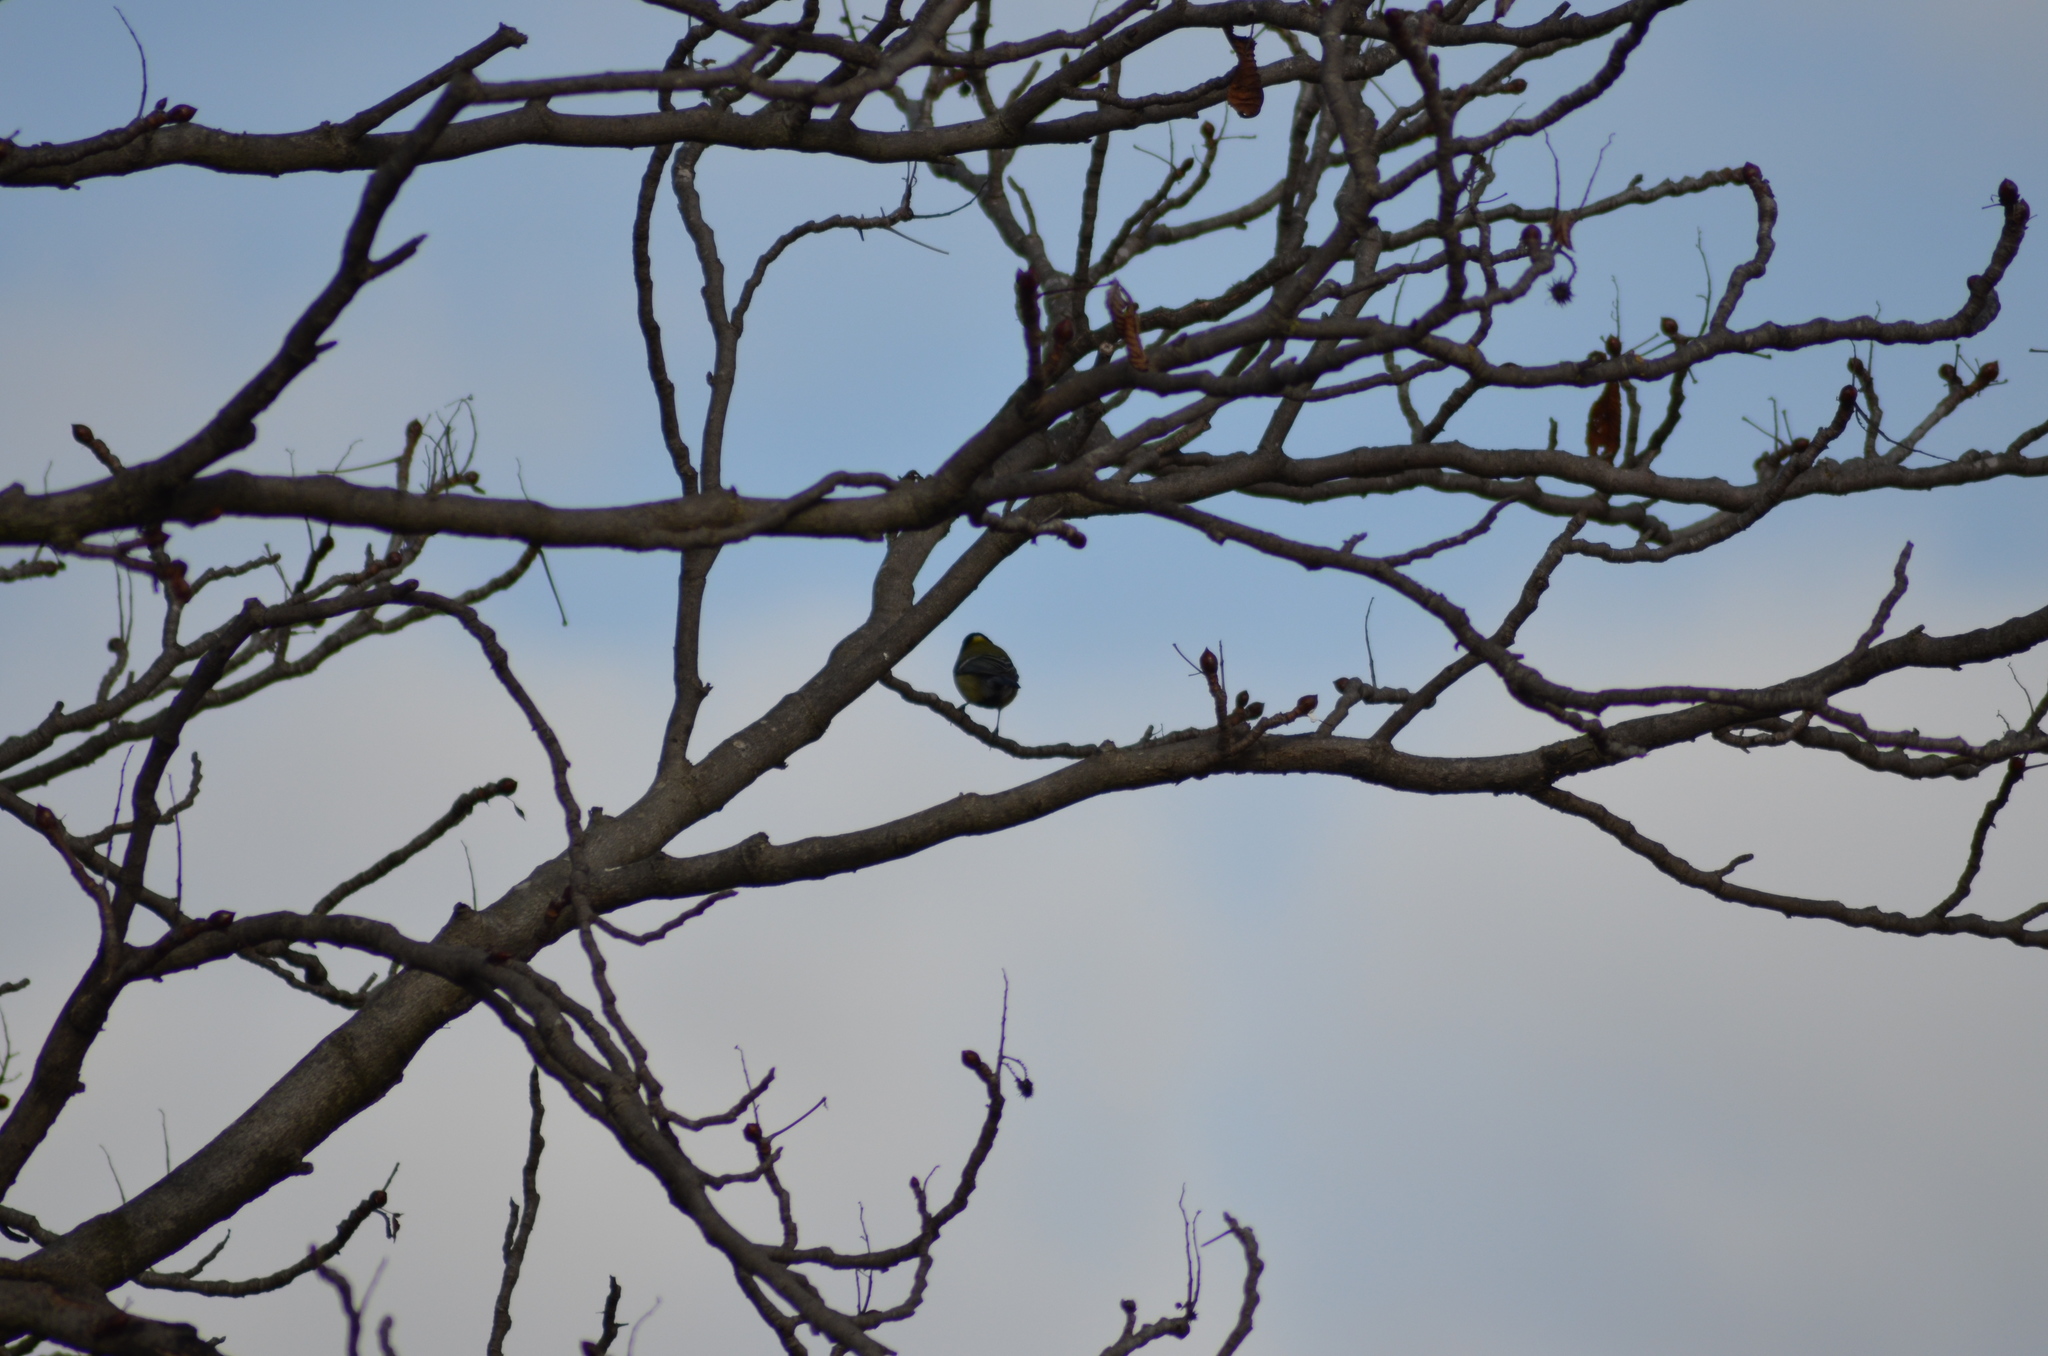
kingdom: Animalia
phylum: Chordata
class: Aves
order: Passeriformes
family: Paridae
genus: Parus
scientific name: Parus major
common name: Great tit
